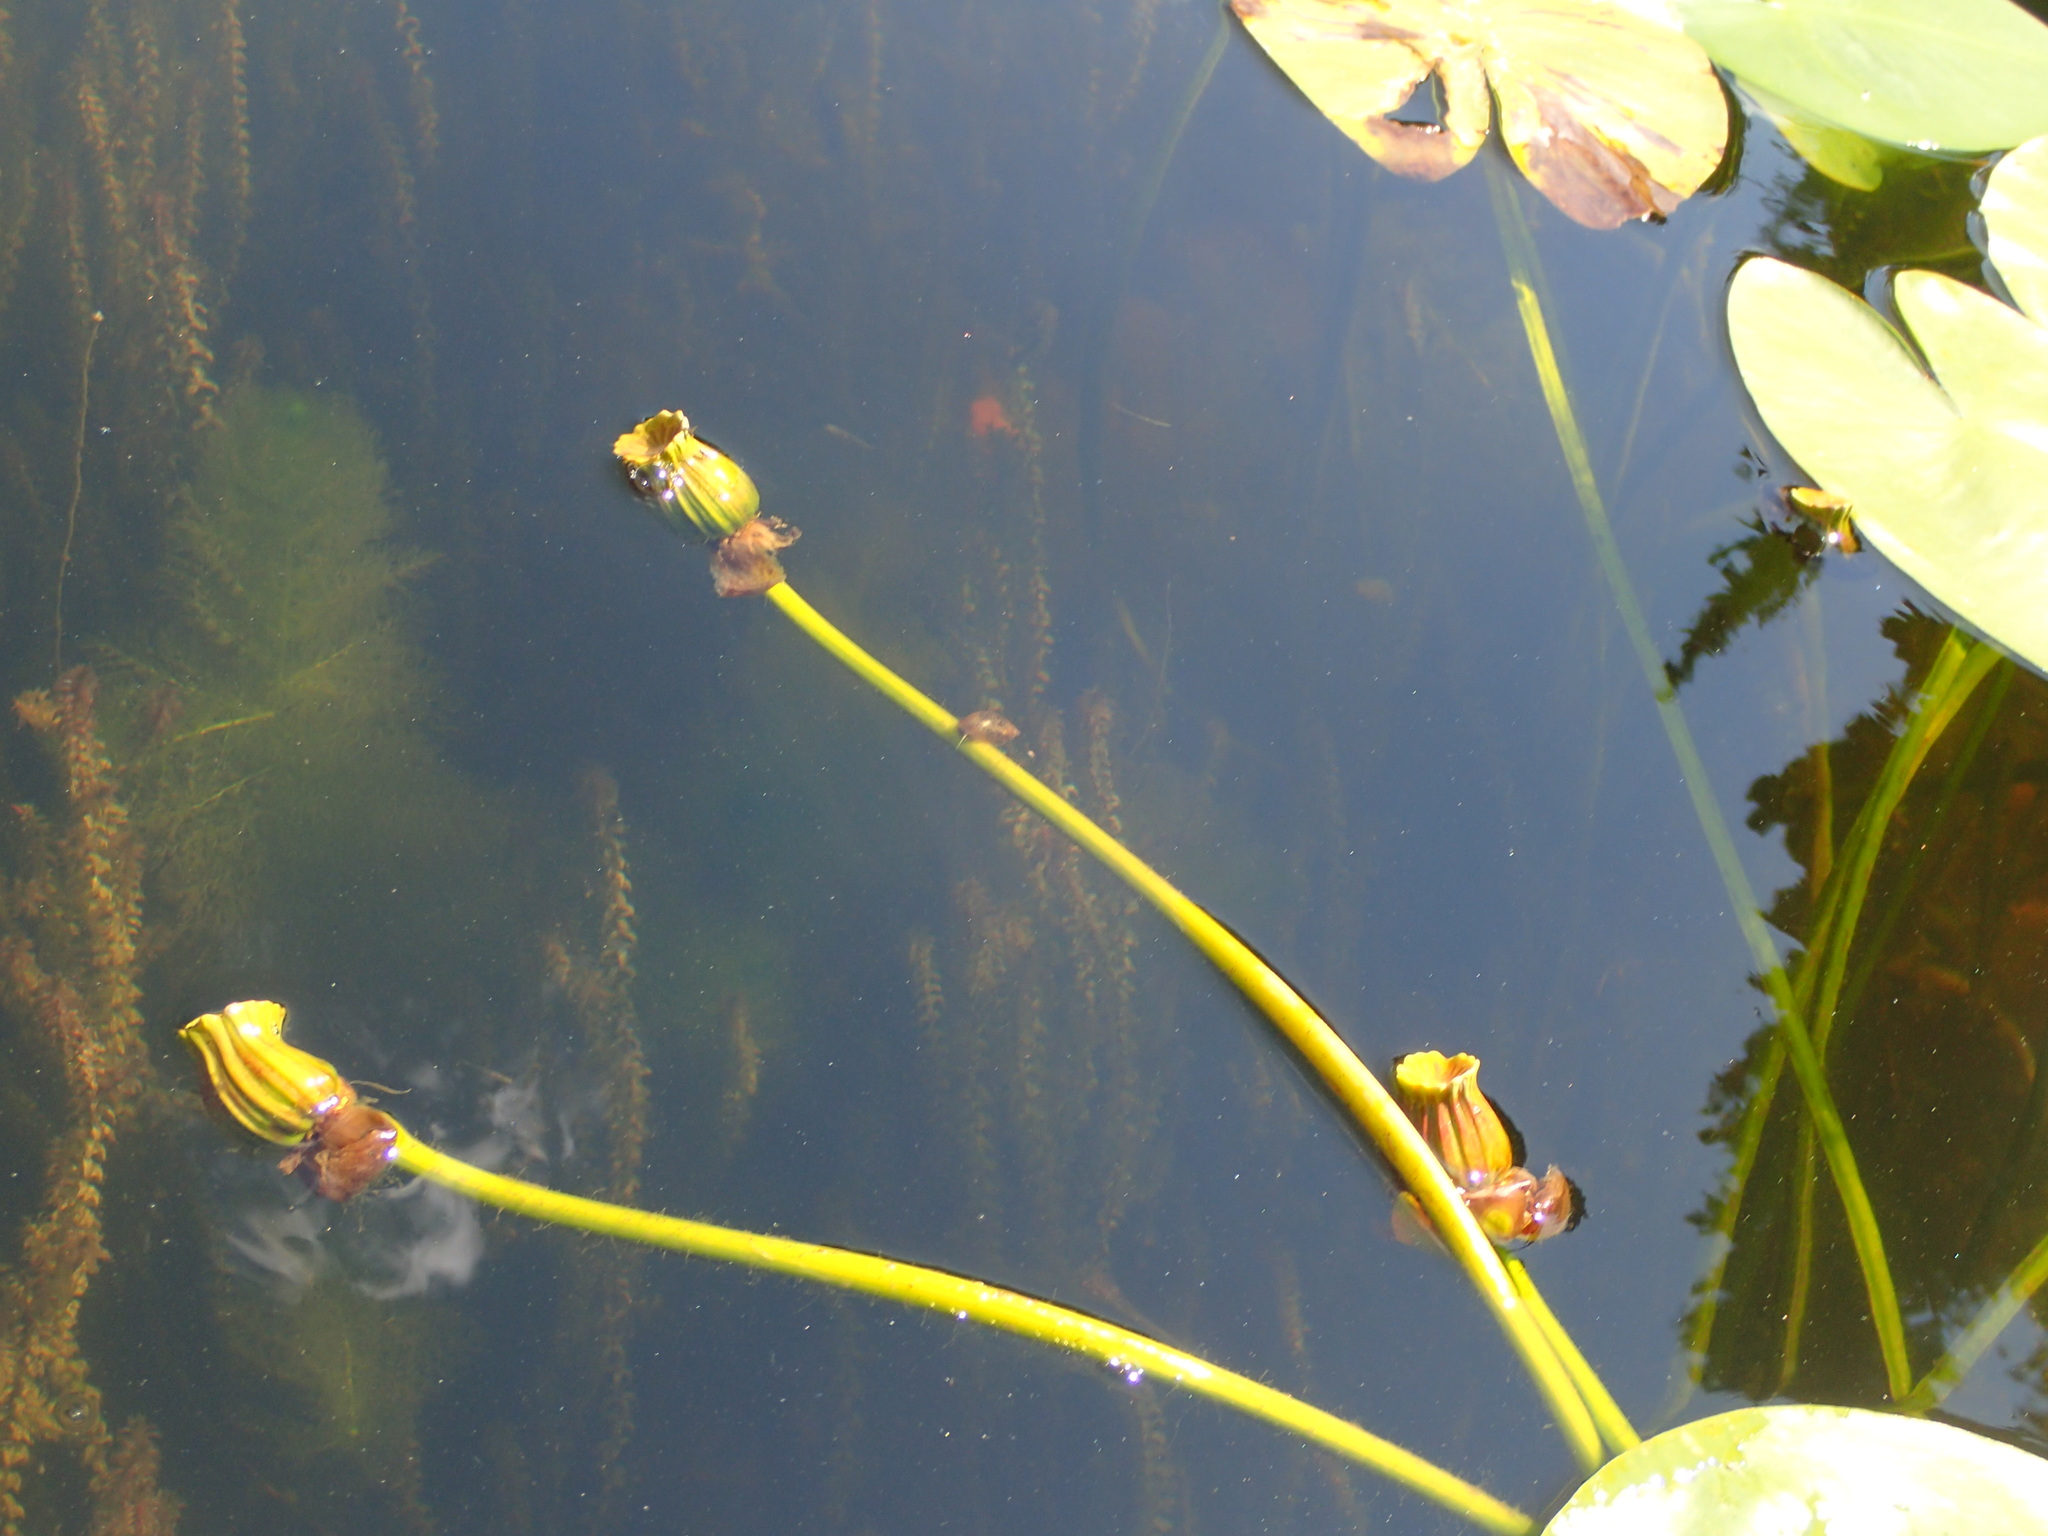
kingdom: Plantae
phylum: Tracheophyta
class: Magnoliopsida
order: Nymphaeales
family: Nymphaeaceae
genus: Nuphar
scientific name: Nuphar variegata
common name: Beaver-root
